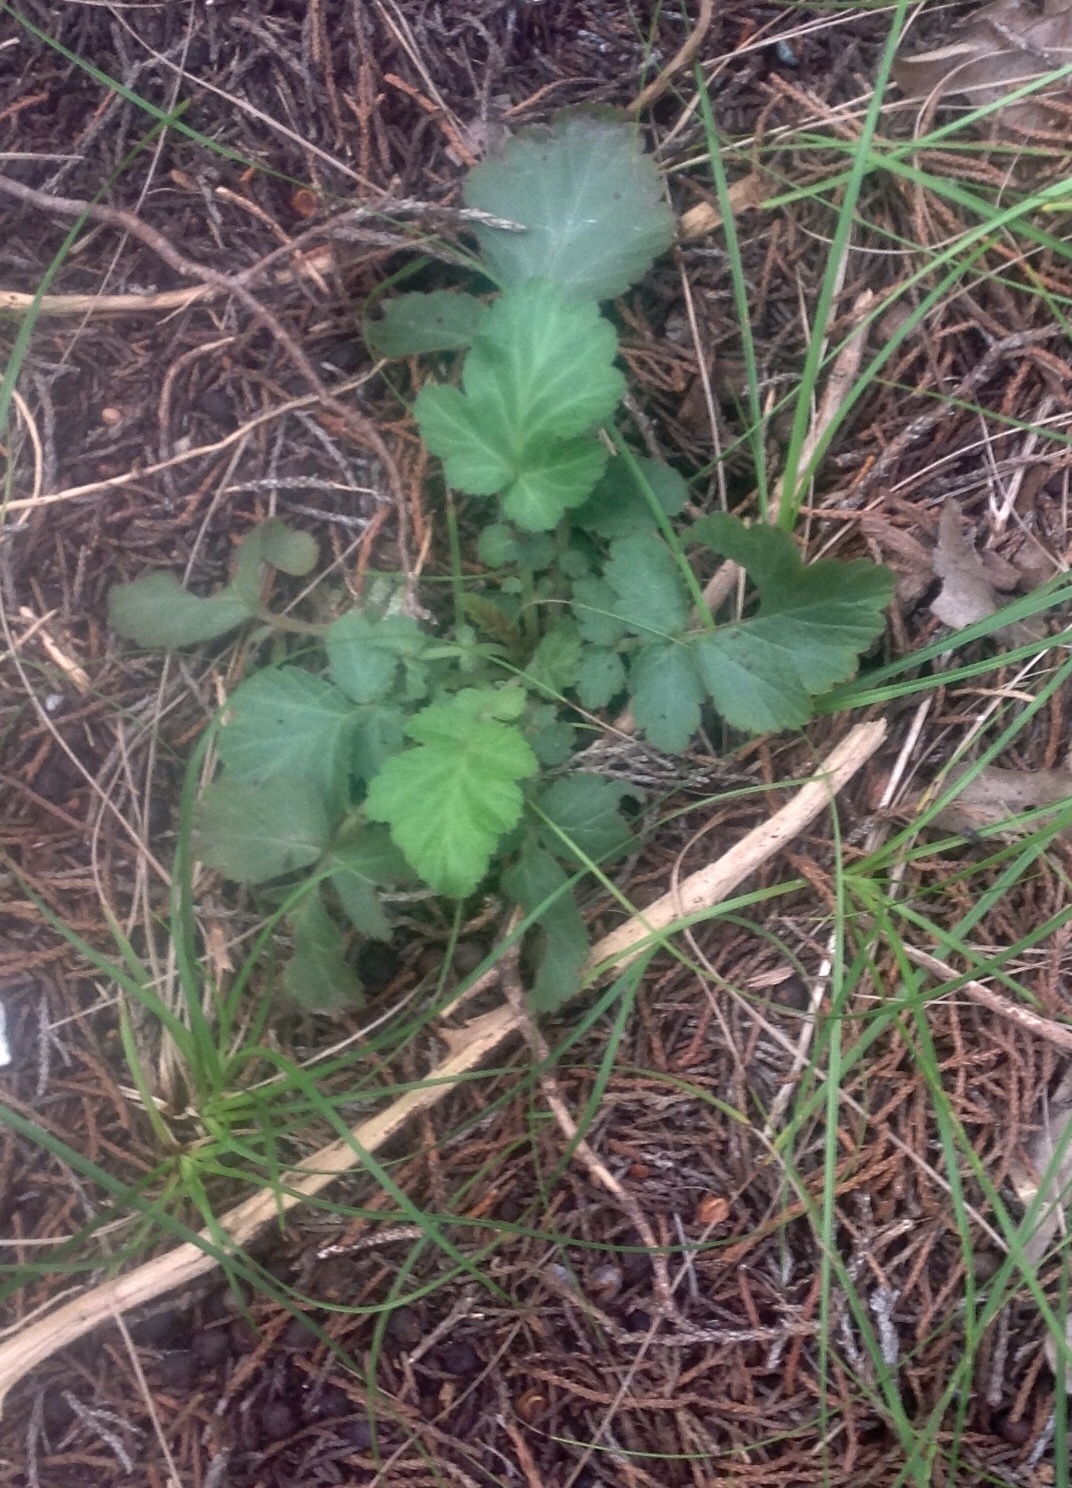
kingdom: Plantae
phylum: Tracheophyta
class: Magnoliopsida
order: Rosales
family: Rosaceae
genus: Geum
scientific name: Geum canadense
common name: White avens
